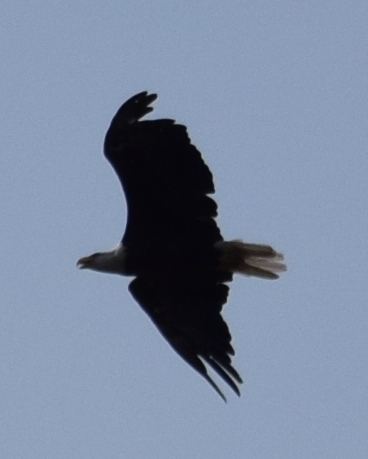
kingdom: Animalia
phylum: Chordata
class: Aves
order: Accipitriformes
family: Accipitridae
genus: Haliaeetus
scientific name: Haliaeetus leucocephalus
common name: Bald eagle
